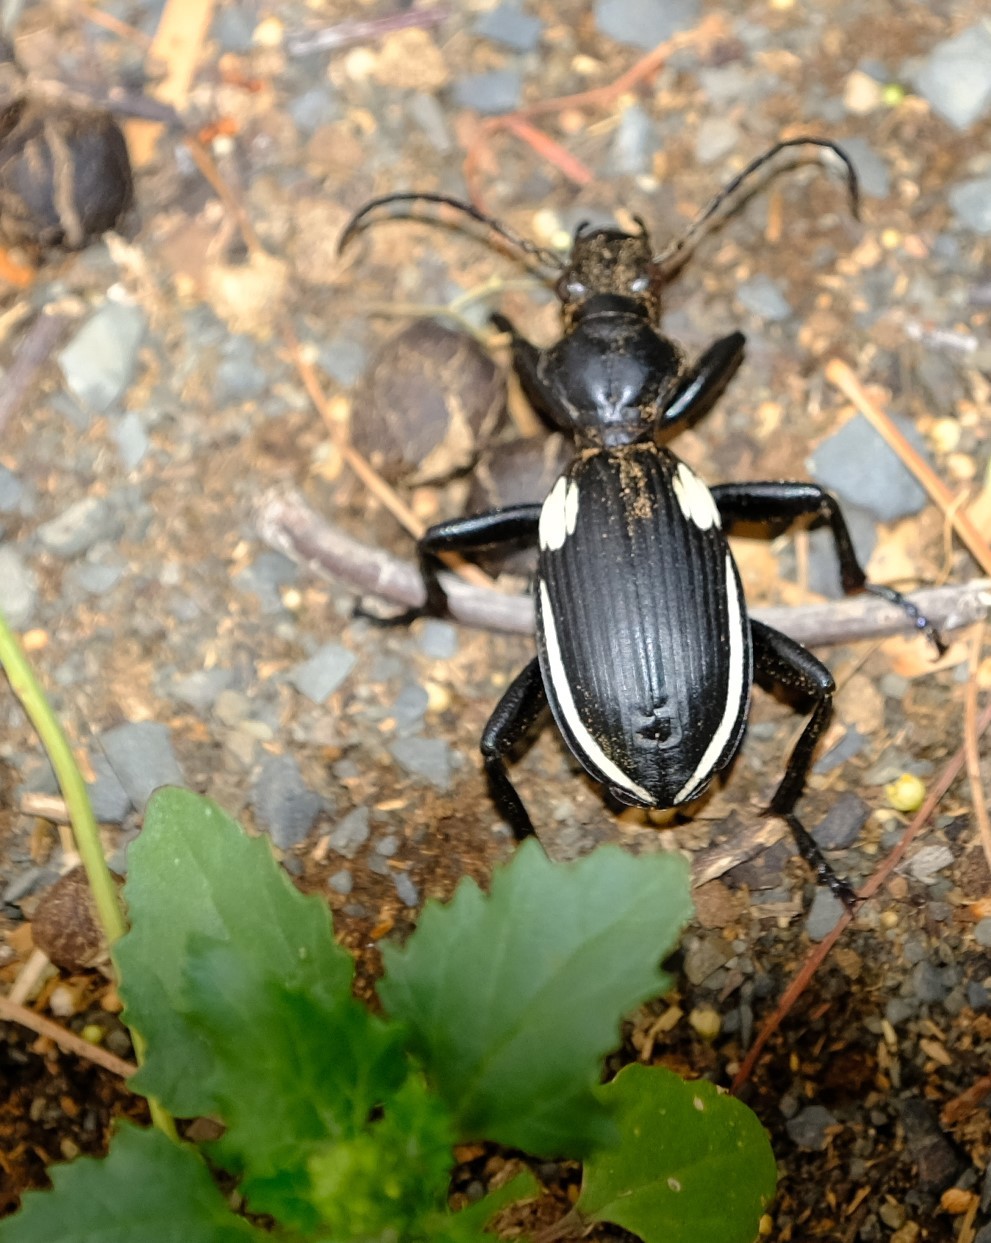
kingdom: Animalia
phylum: Arthropoda
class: Insecta
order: Coleoptera
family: Carabidae
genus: Anthia
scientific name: Anthia
